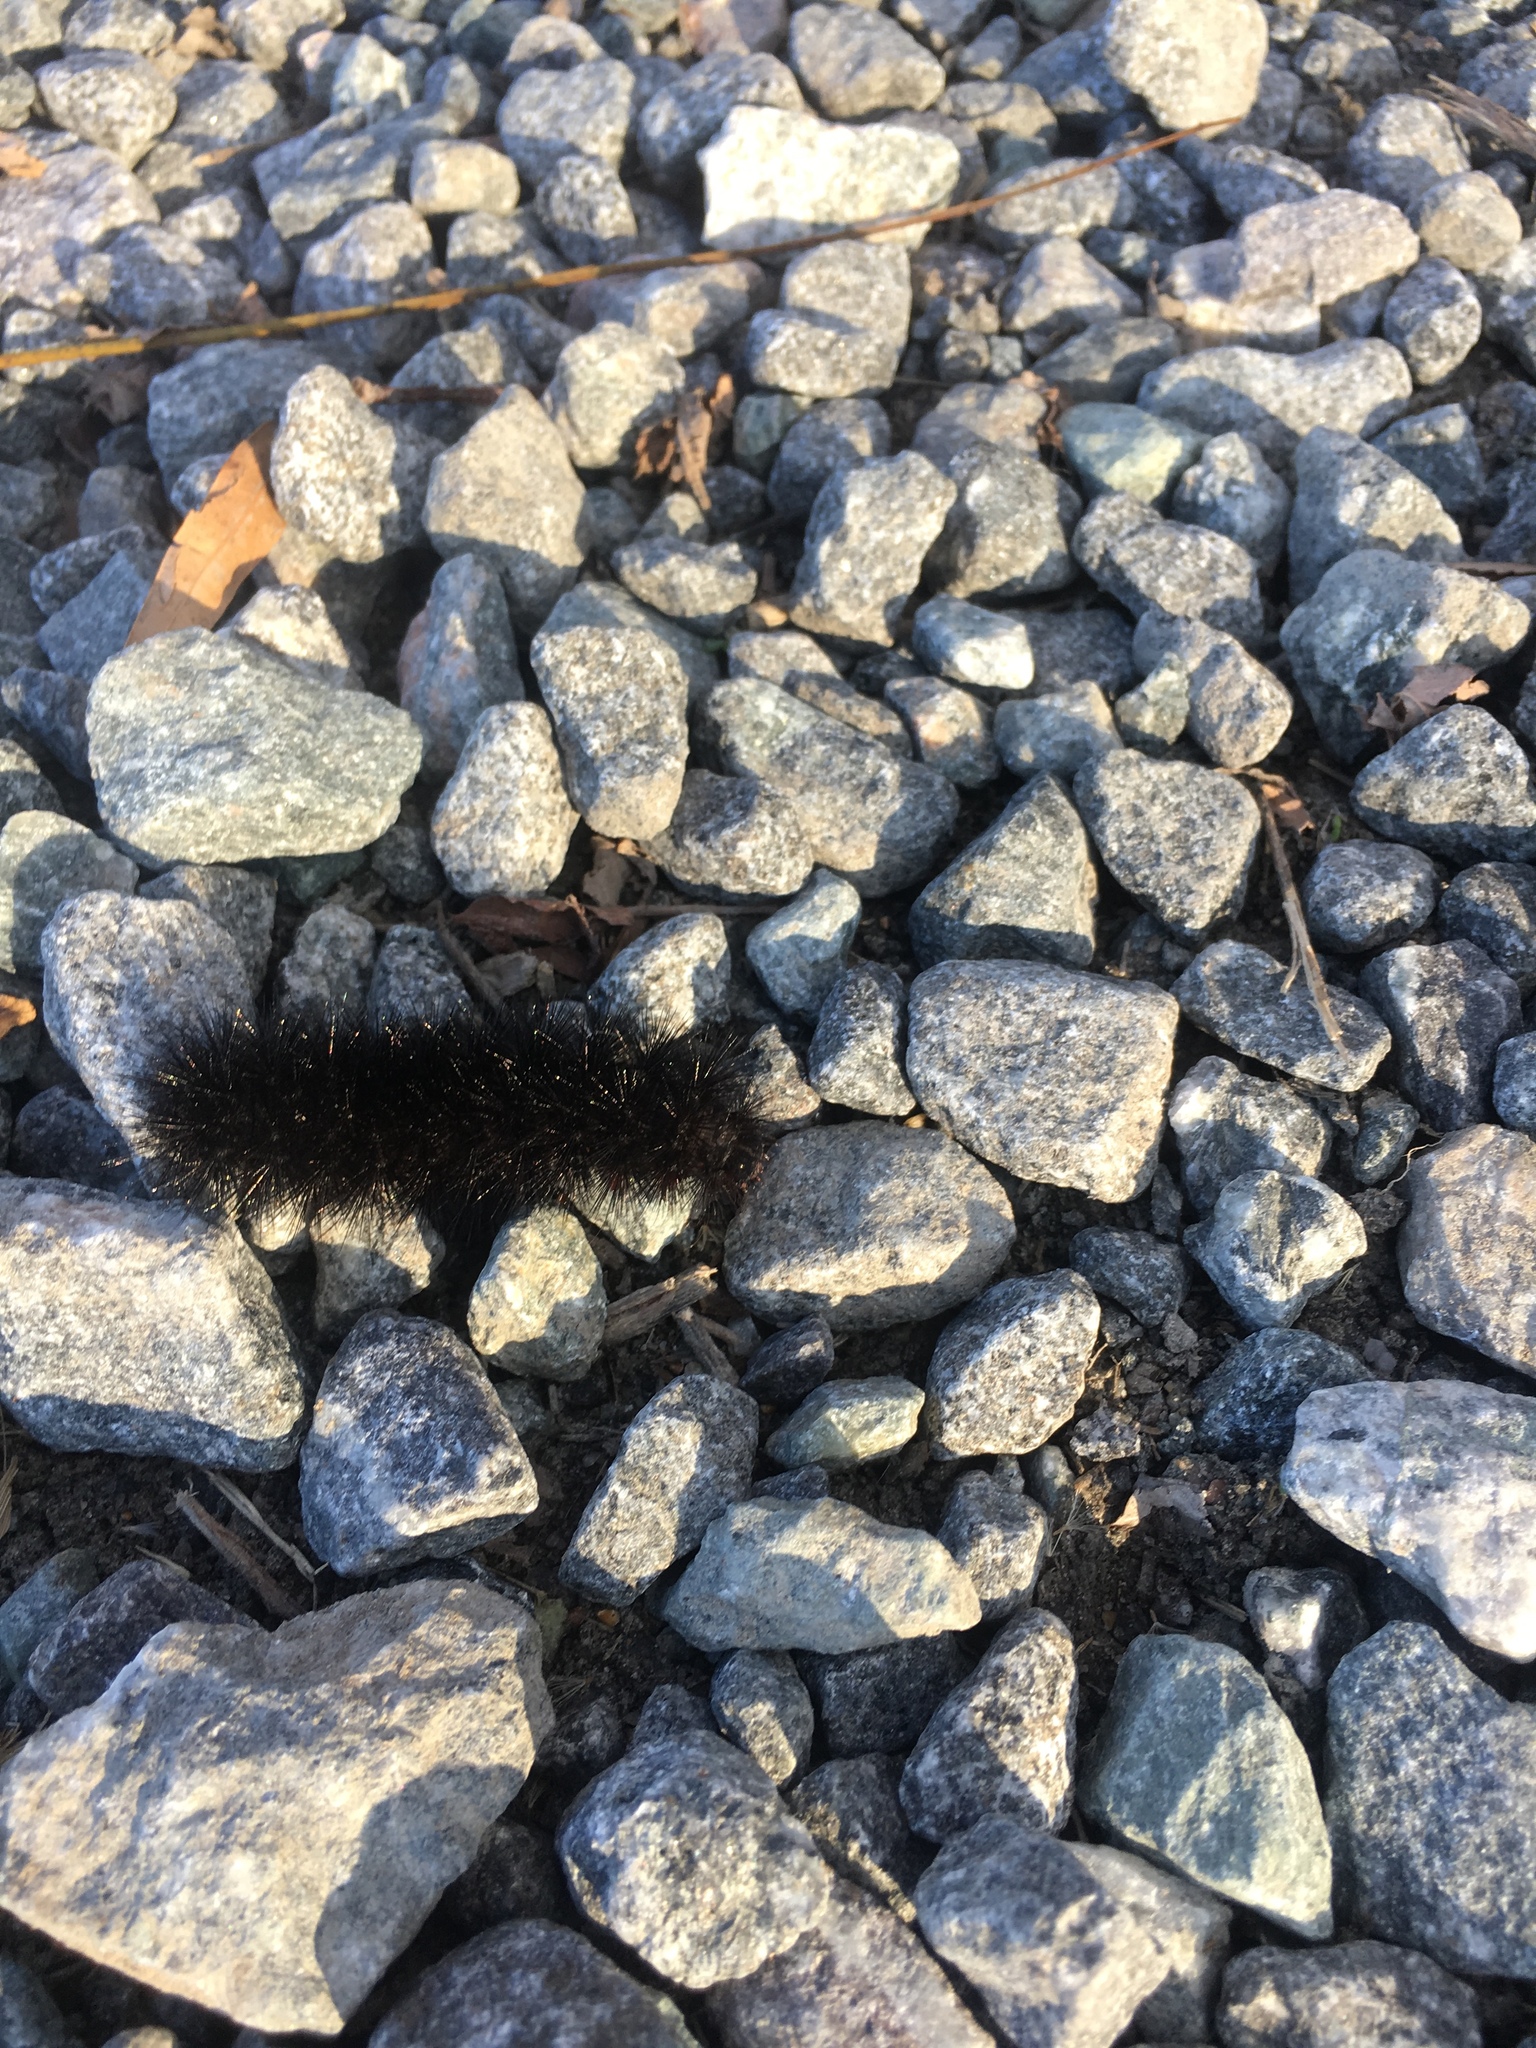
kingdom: Animalia
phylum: Arthropoda
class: Insecta
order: Lepidoptera
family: Erebidae
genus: Hypercompe
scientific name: Hypercompe scribonia
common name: Giant leopard moth
